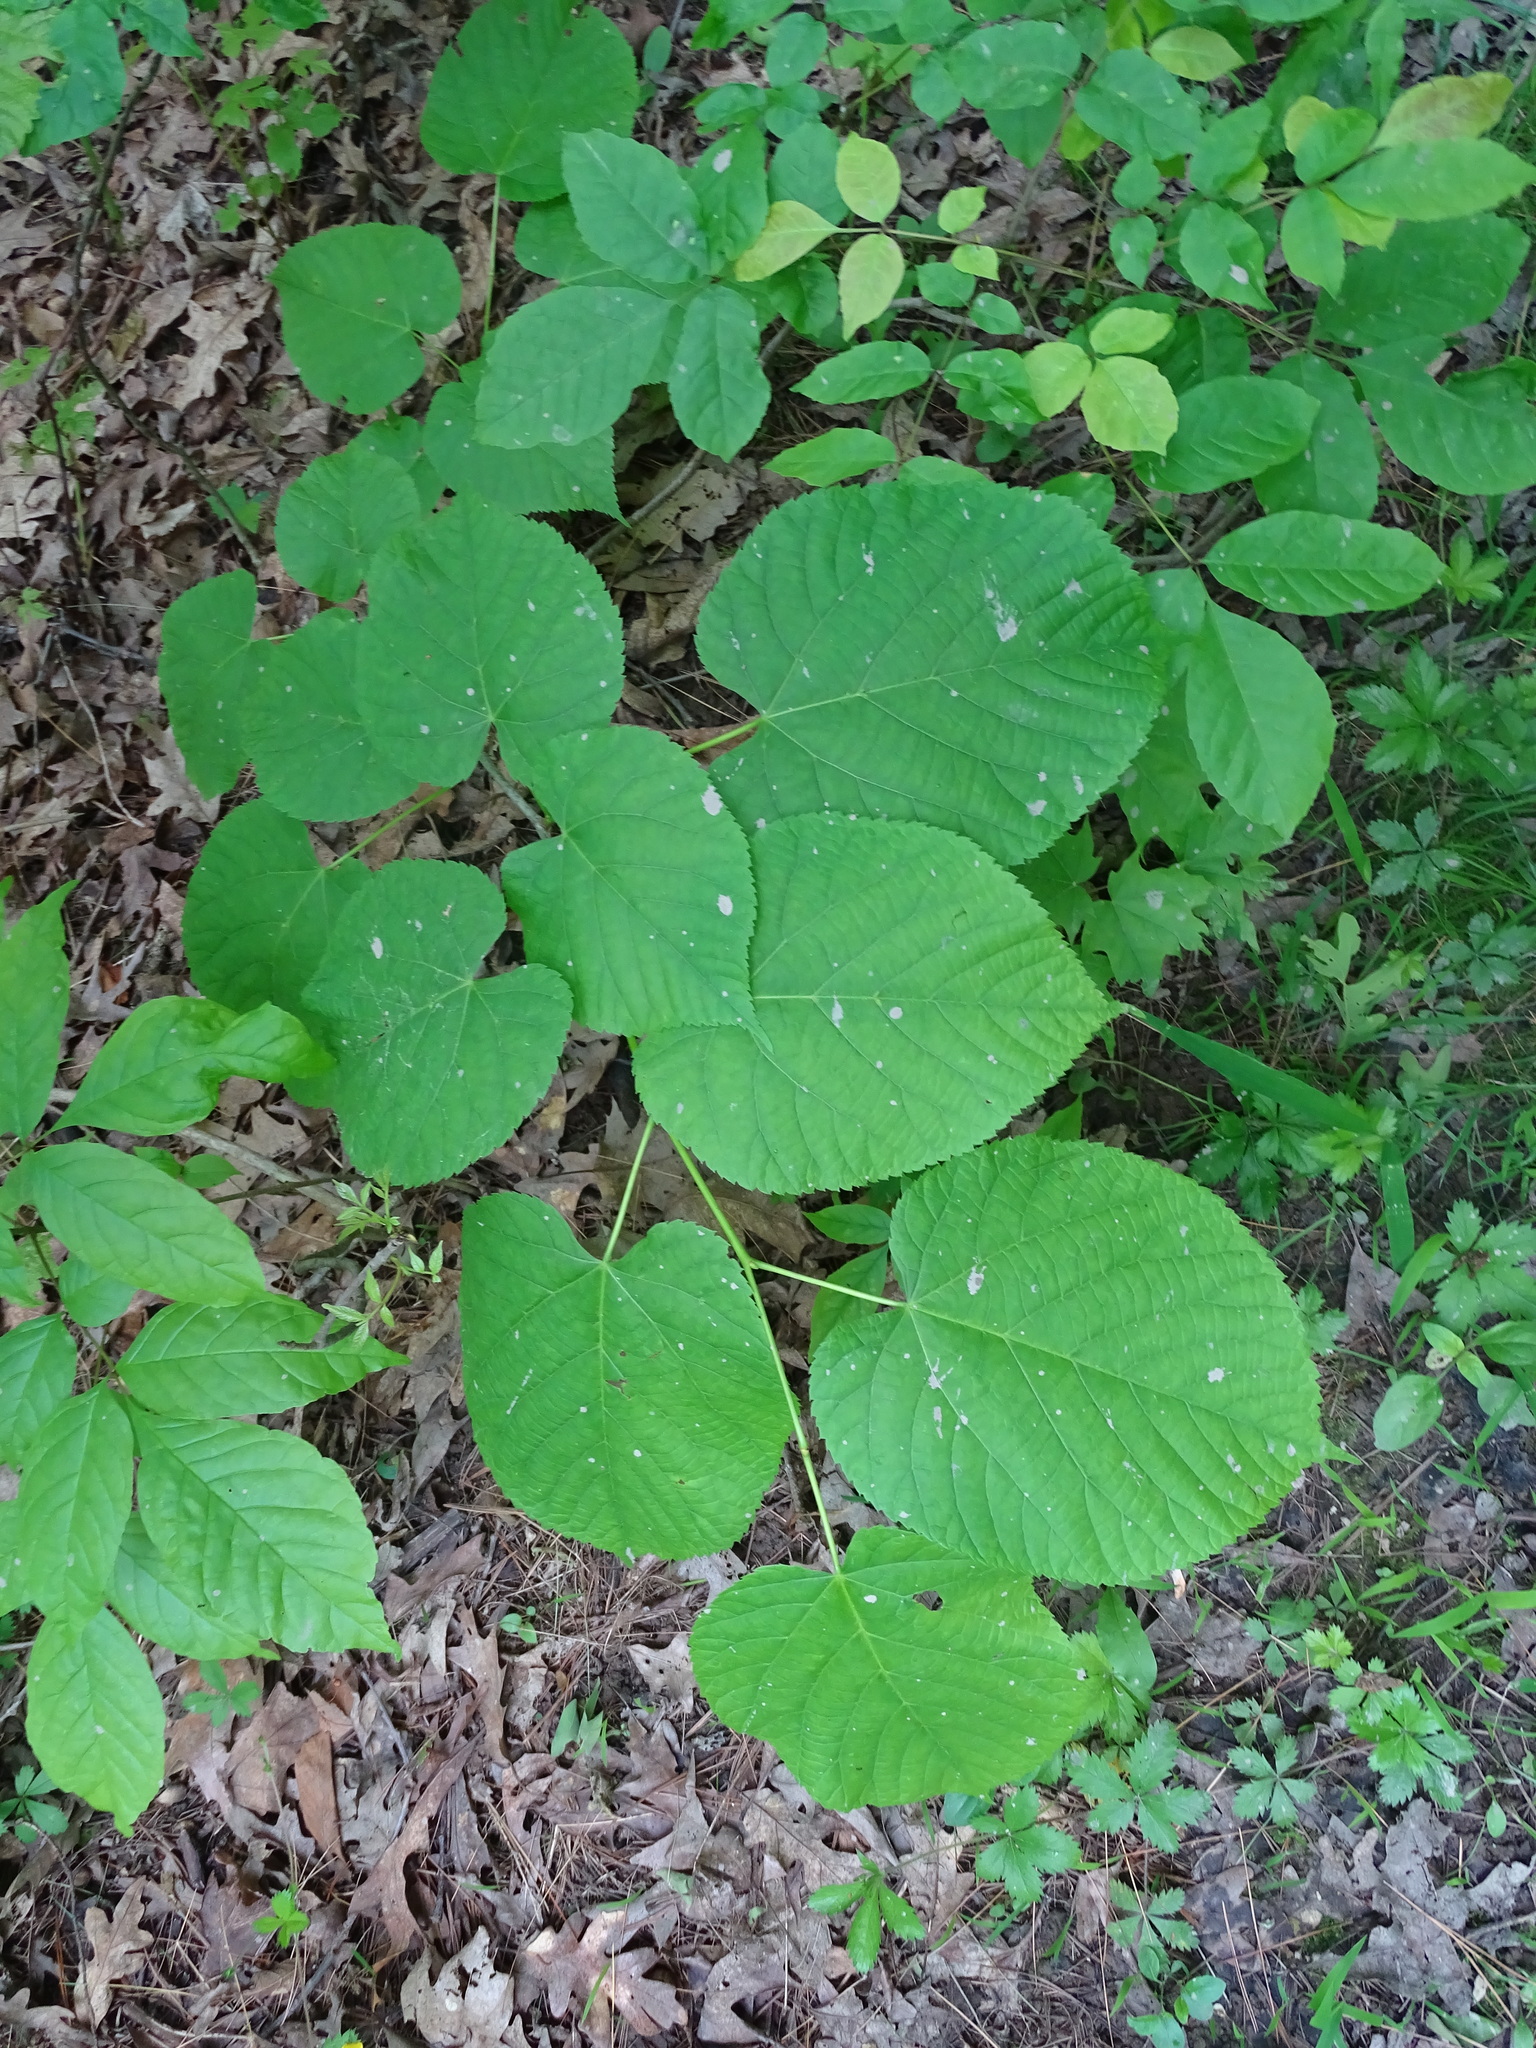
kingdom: Plantae
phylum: Tracheophyta
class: Magnoliopsida
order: Malvales
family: Malvaceae
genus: Tilia
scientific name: Tilia americana
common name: Basswood
